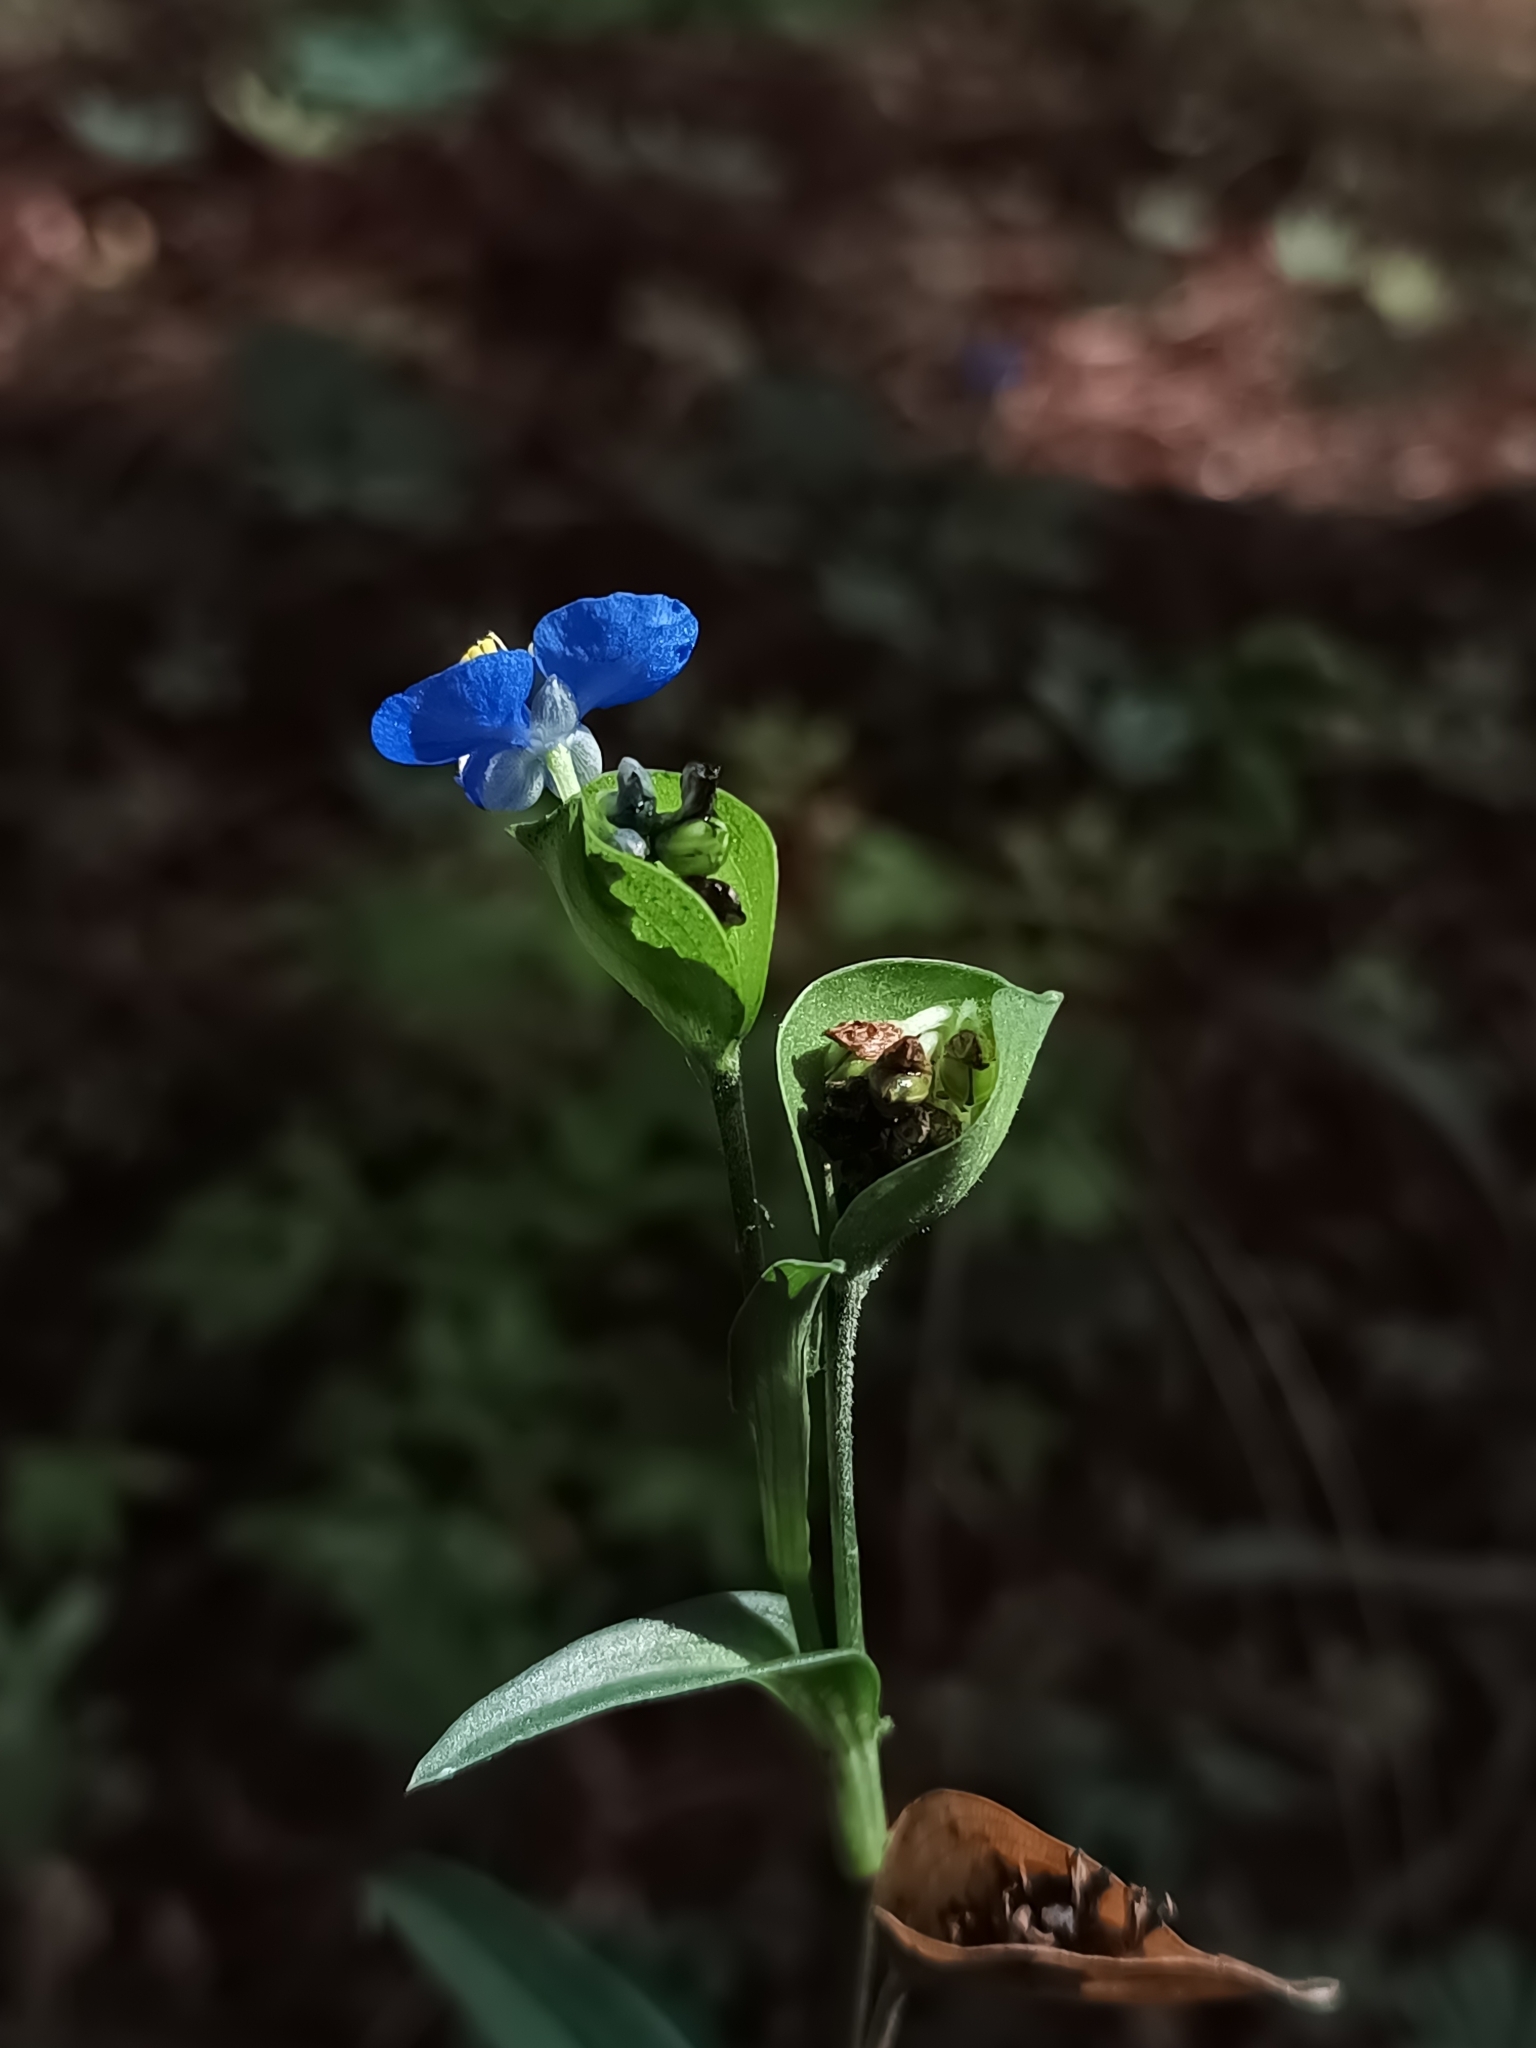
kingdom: Plantae
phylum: Tracheophyta
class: Liliopsida
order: Commelinales
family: Commelinaceae
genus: Commelina
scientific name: Commelina tuberosa
